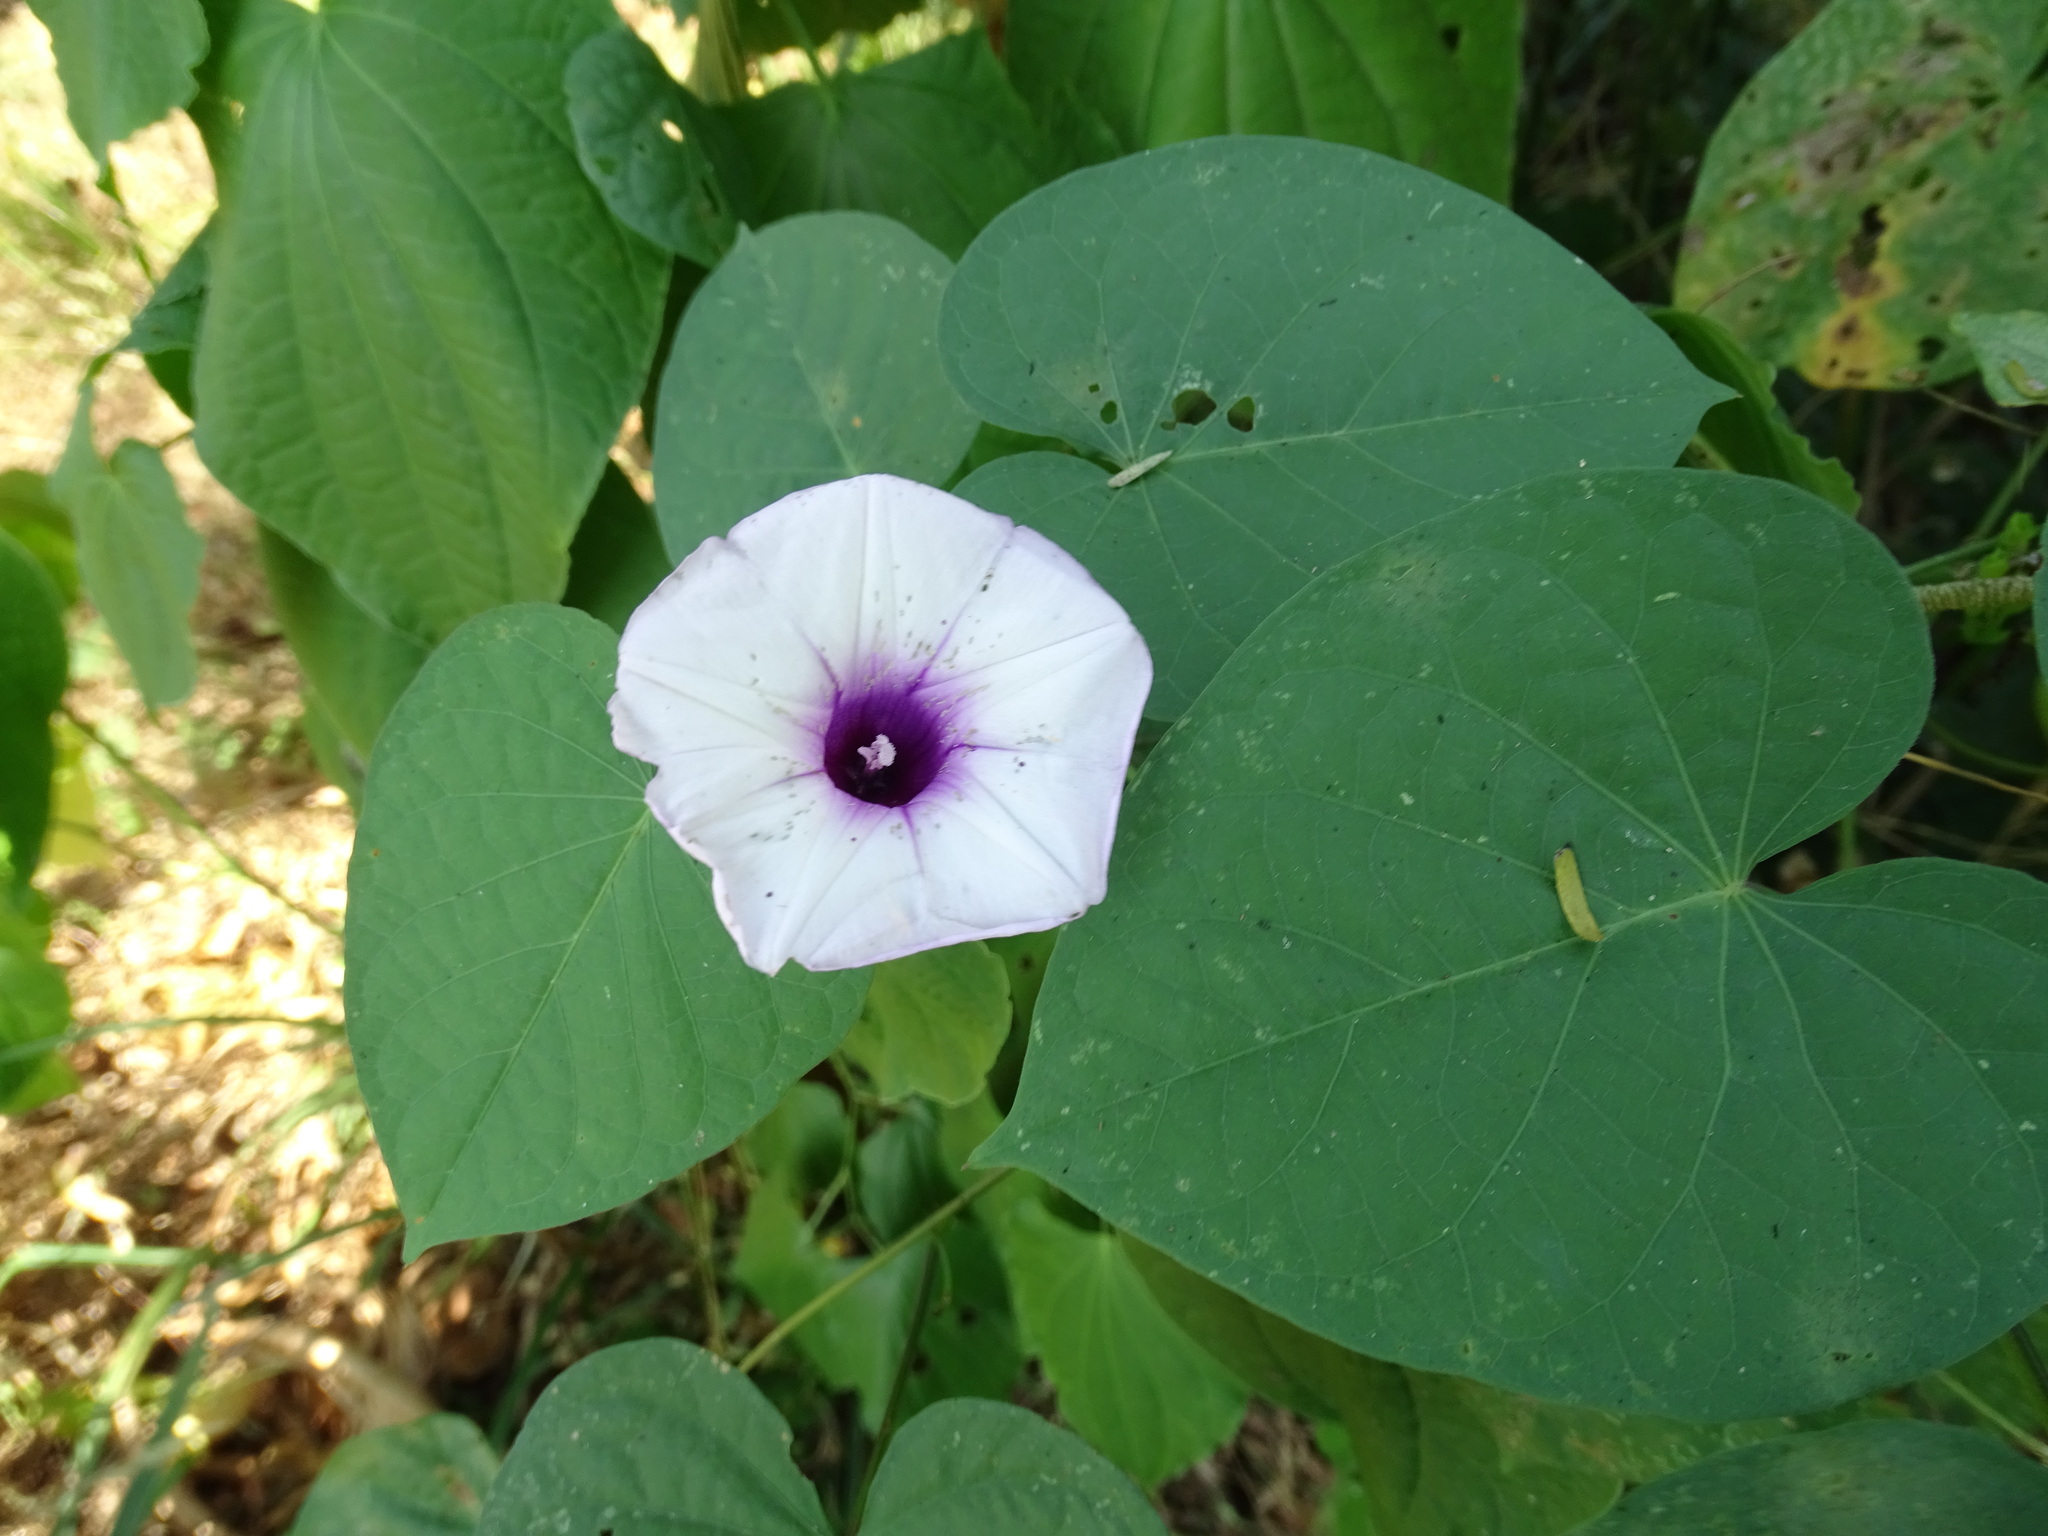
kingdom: Plantae
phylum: Tracheophyta
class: Magnoliopsida
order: Solanales
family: Convolvulaceae
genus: Ipomoea
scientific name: Ipomoea batatas
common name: Sweet-potato
